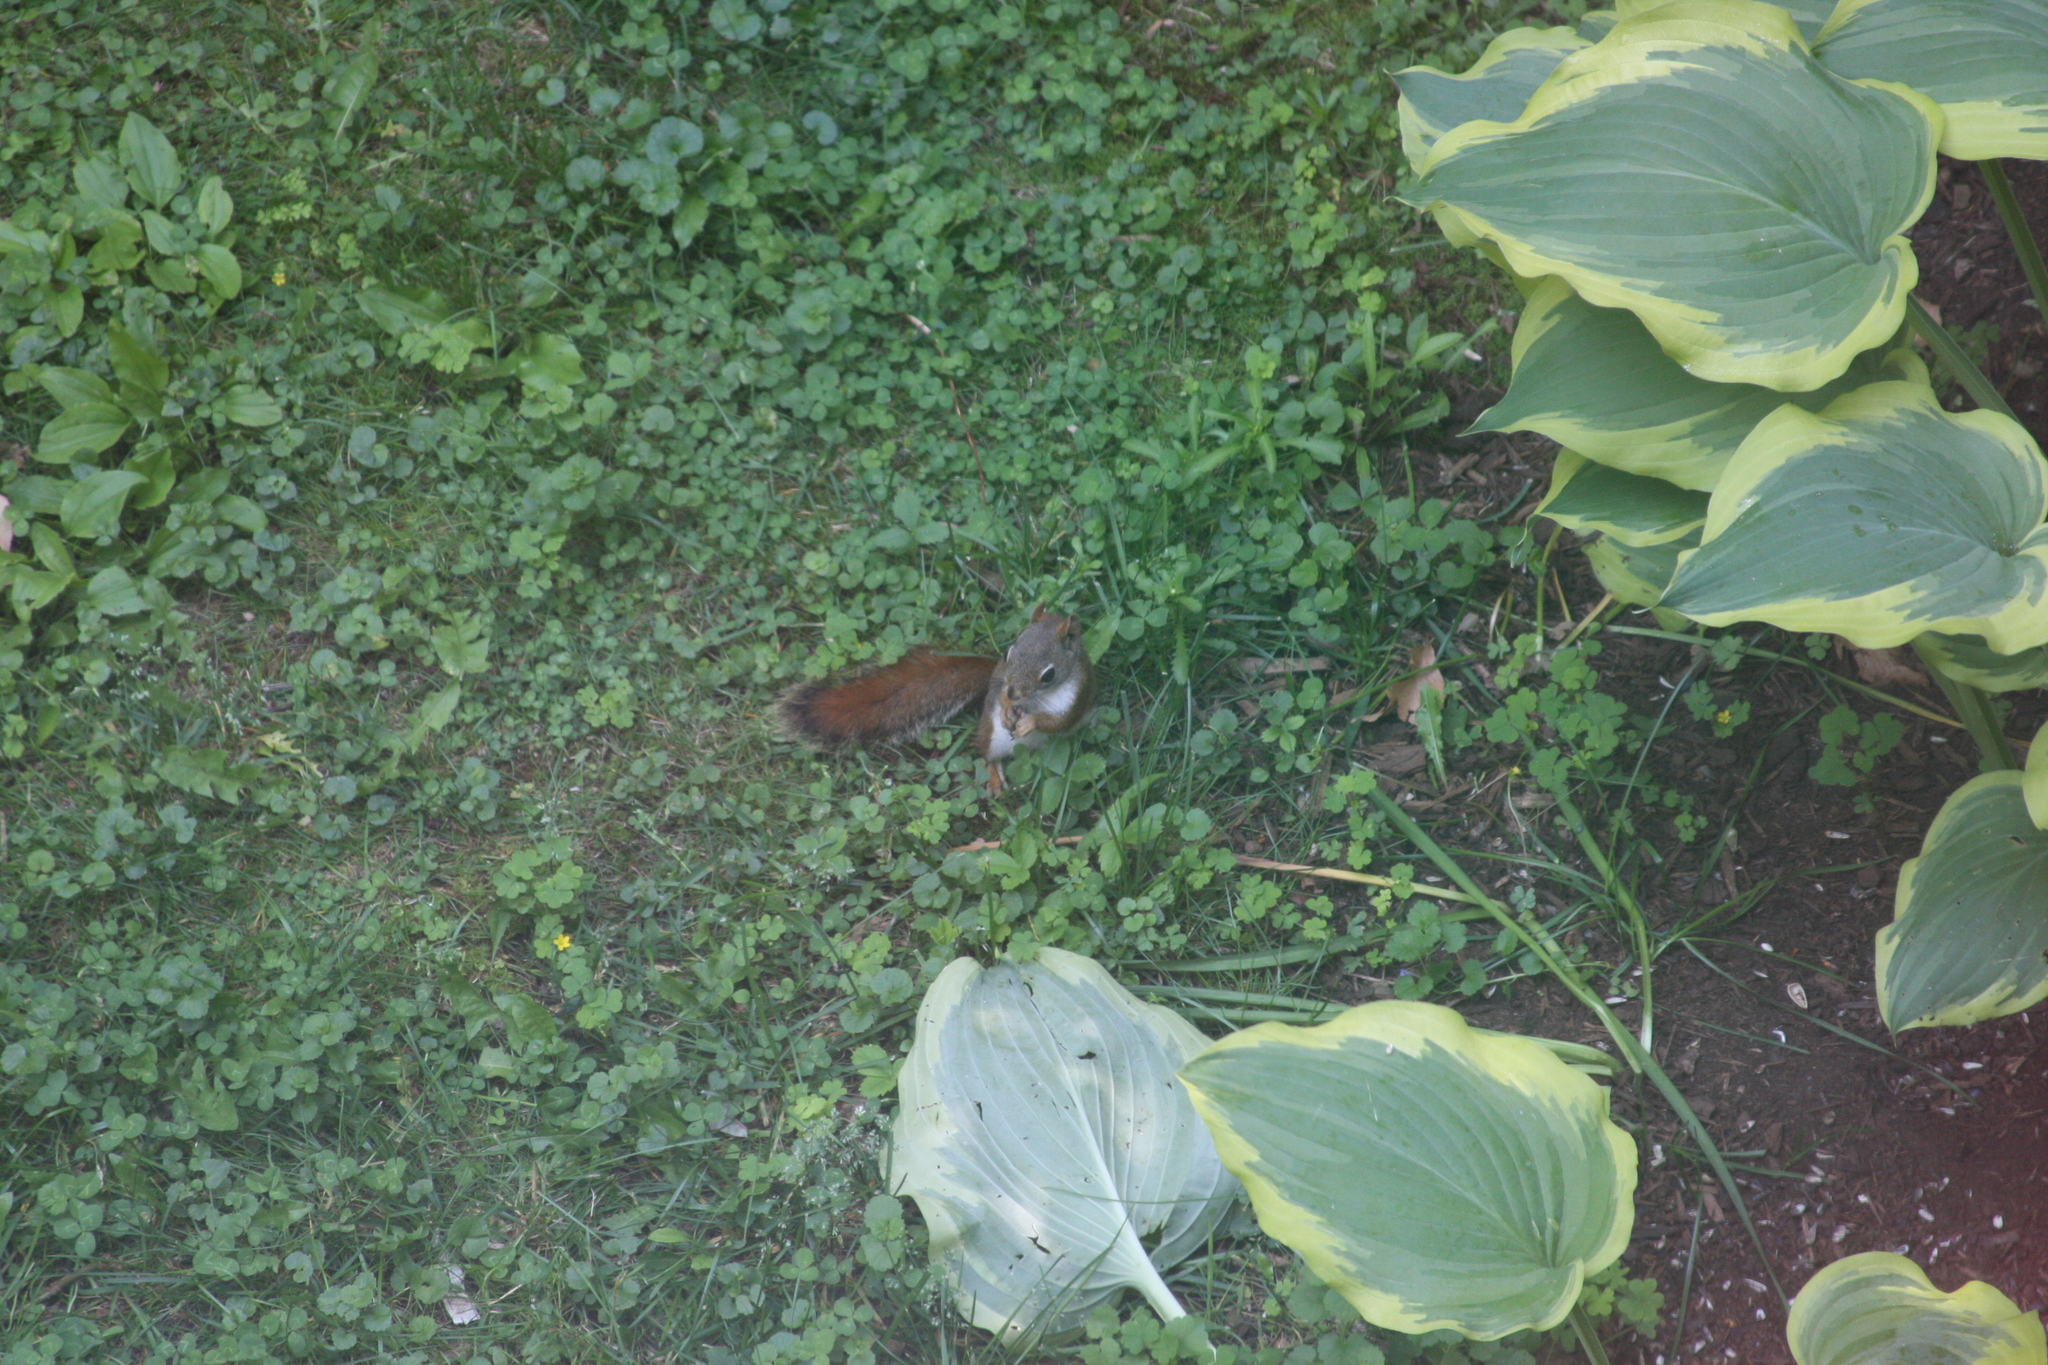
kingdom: Animalia
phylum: Chordata
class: Mammalia
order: Rodentia
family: Sciuridae
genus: Tamiasciurus
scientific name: Tamiasciurus hudsonicus
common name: Red squirrel
